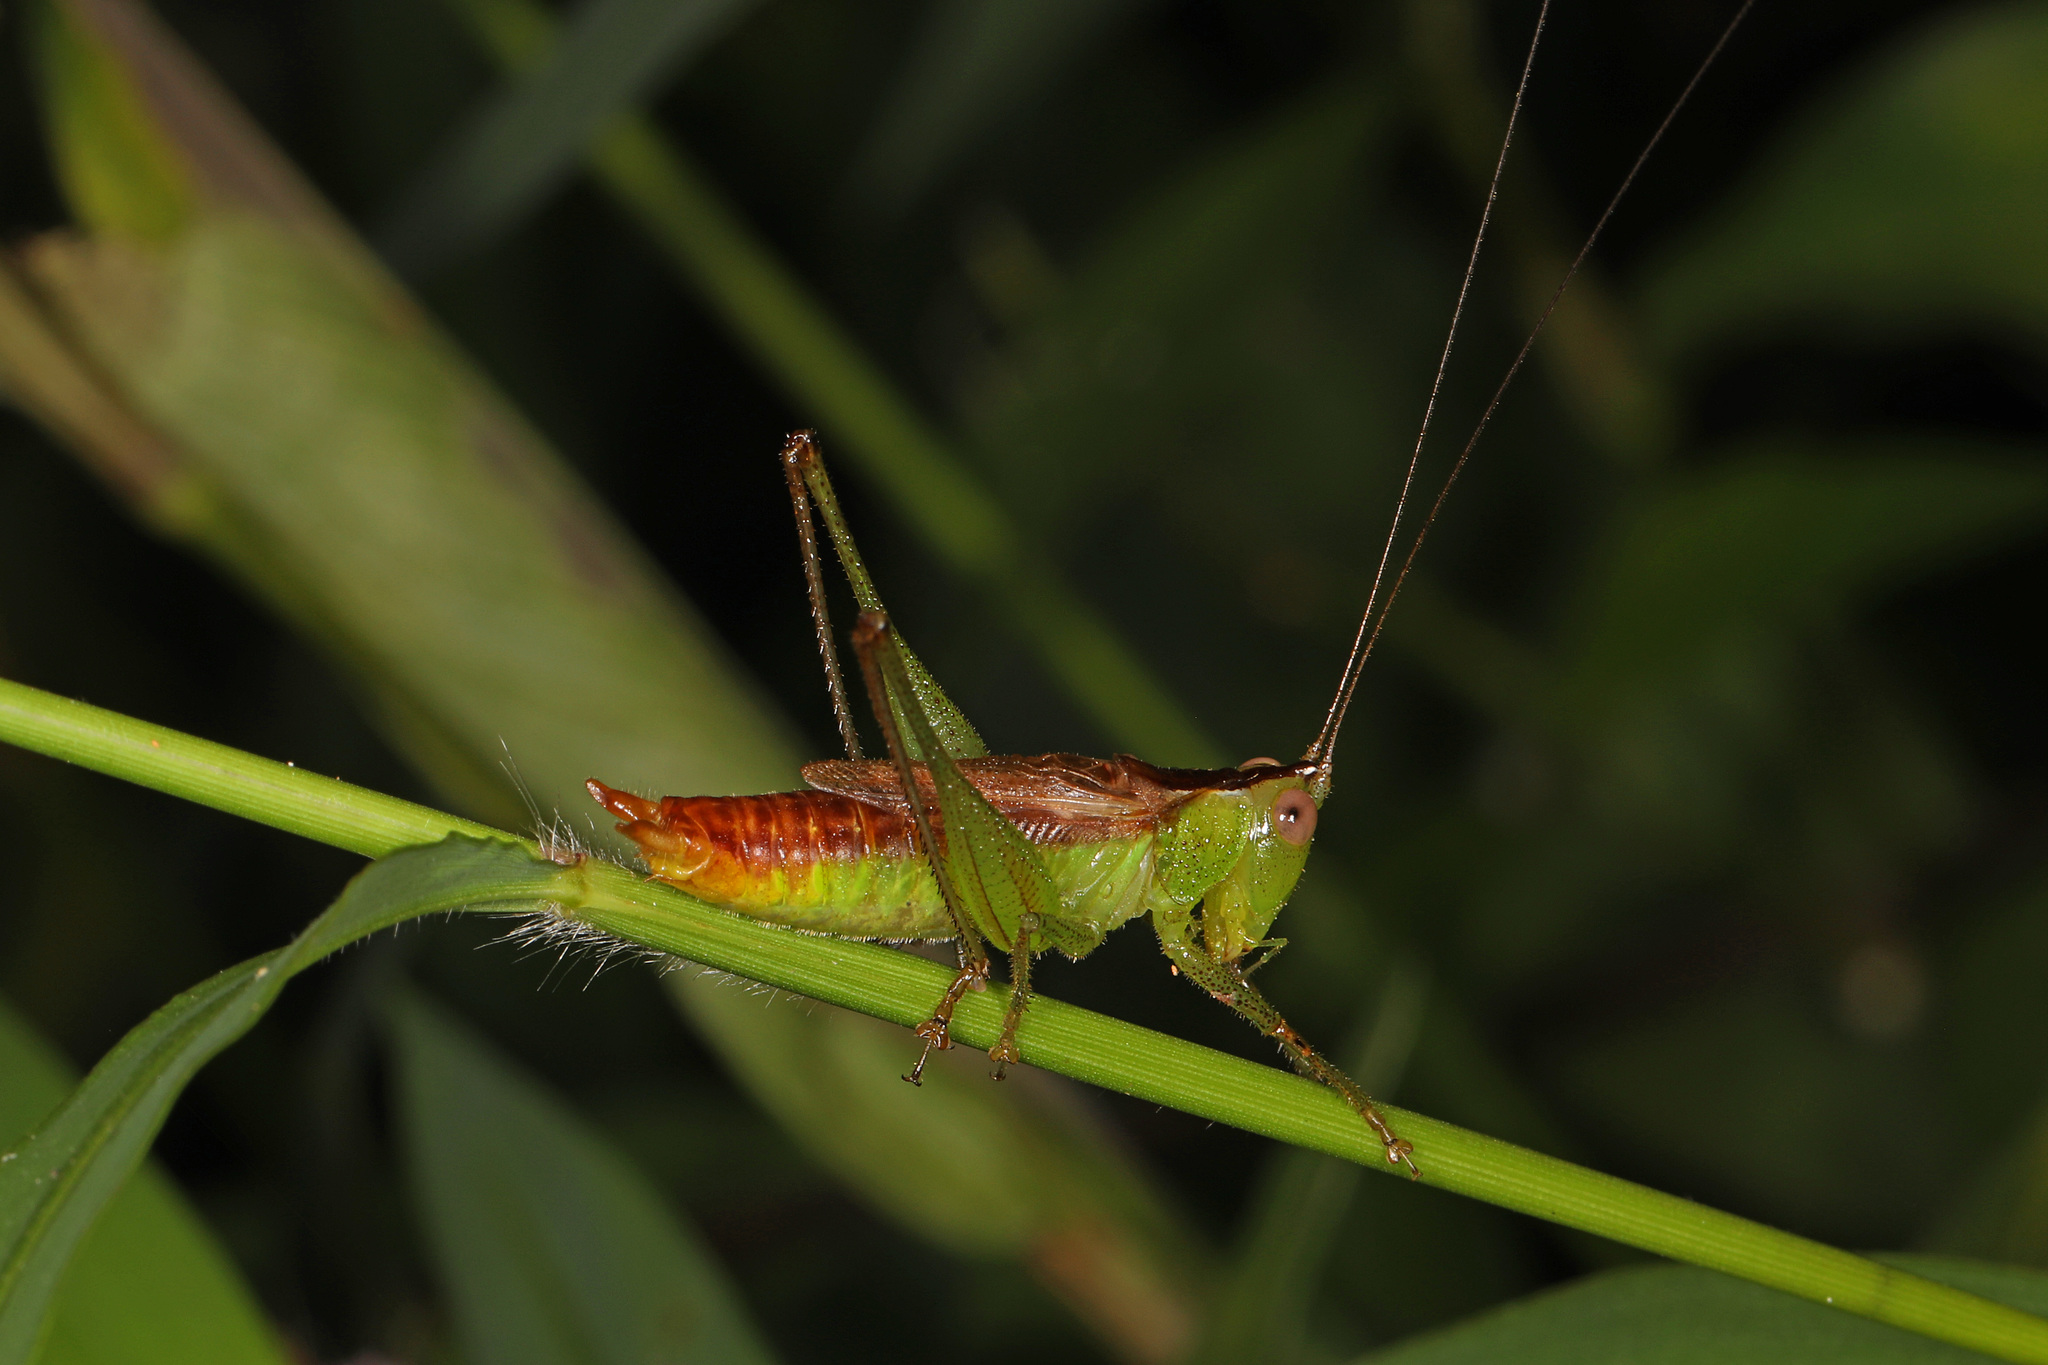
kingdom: Animalia
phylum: Arthropoda
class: Insecta
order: Orthoptera
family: Tettigoniidae
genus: Conocephalus
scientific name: Conocephalus brevipennis
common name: Short-winged meadow katydid
